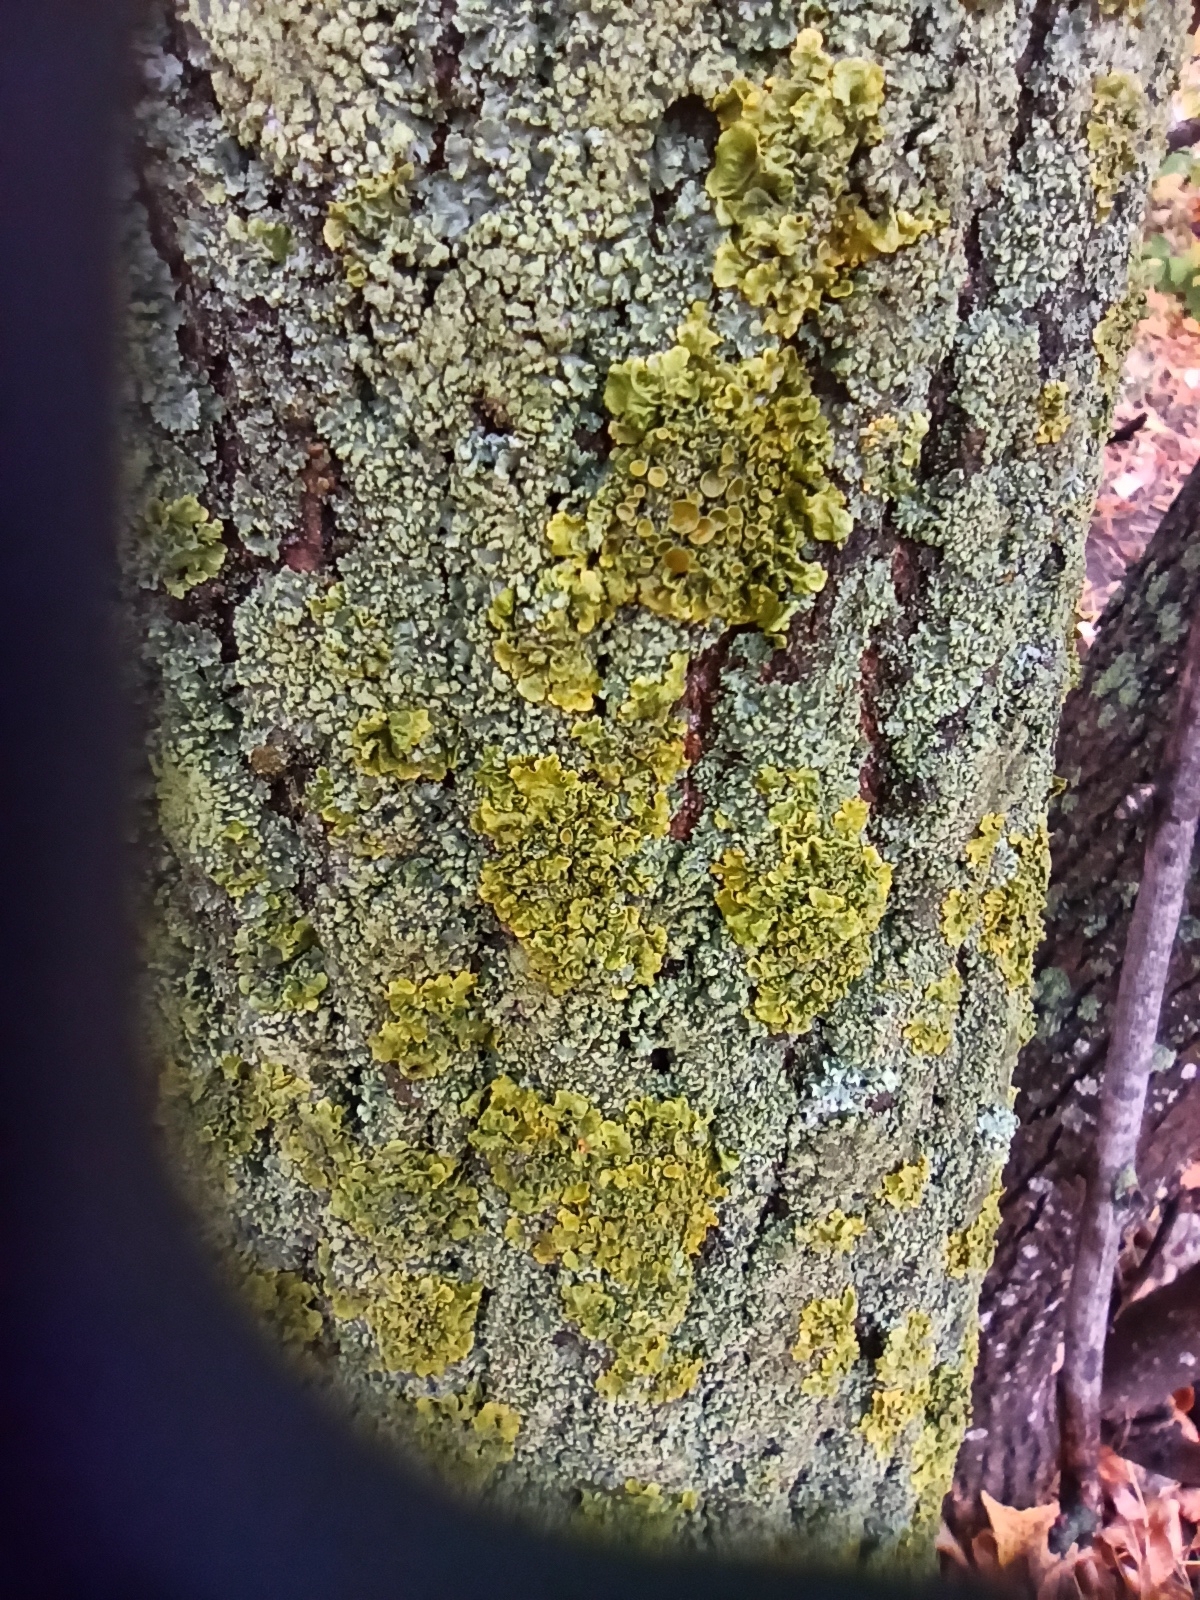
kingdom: Fungi
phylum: Ascomycota
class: Lecanoromycetes
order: Teloschistales
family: Teloschistaceae
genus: Xanthoria
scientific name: Xanthoria parietina
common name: Common orange lichen
